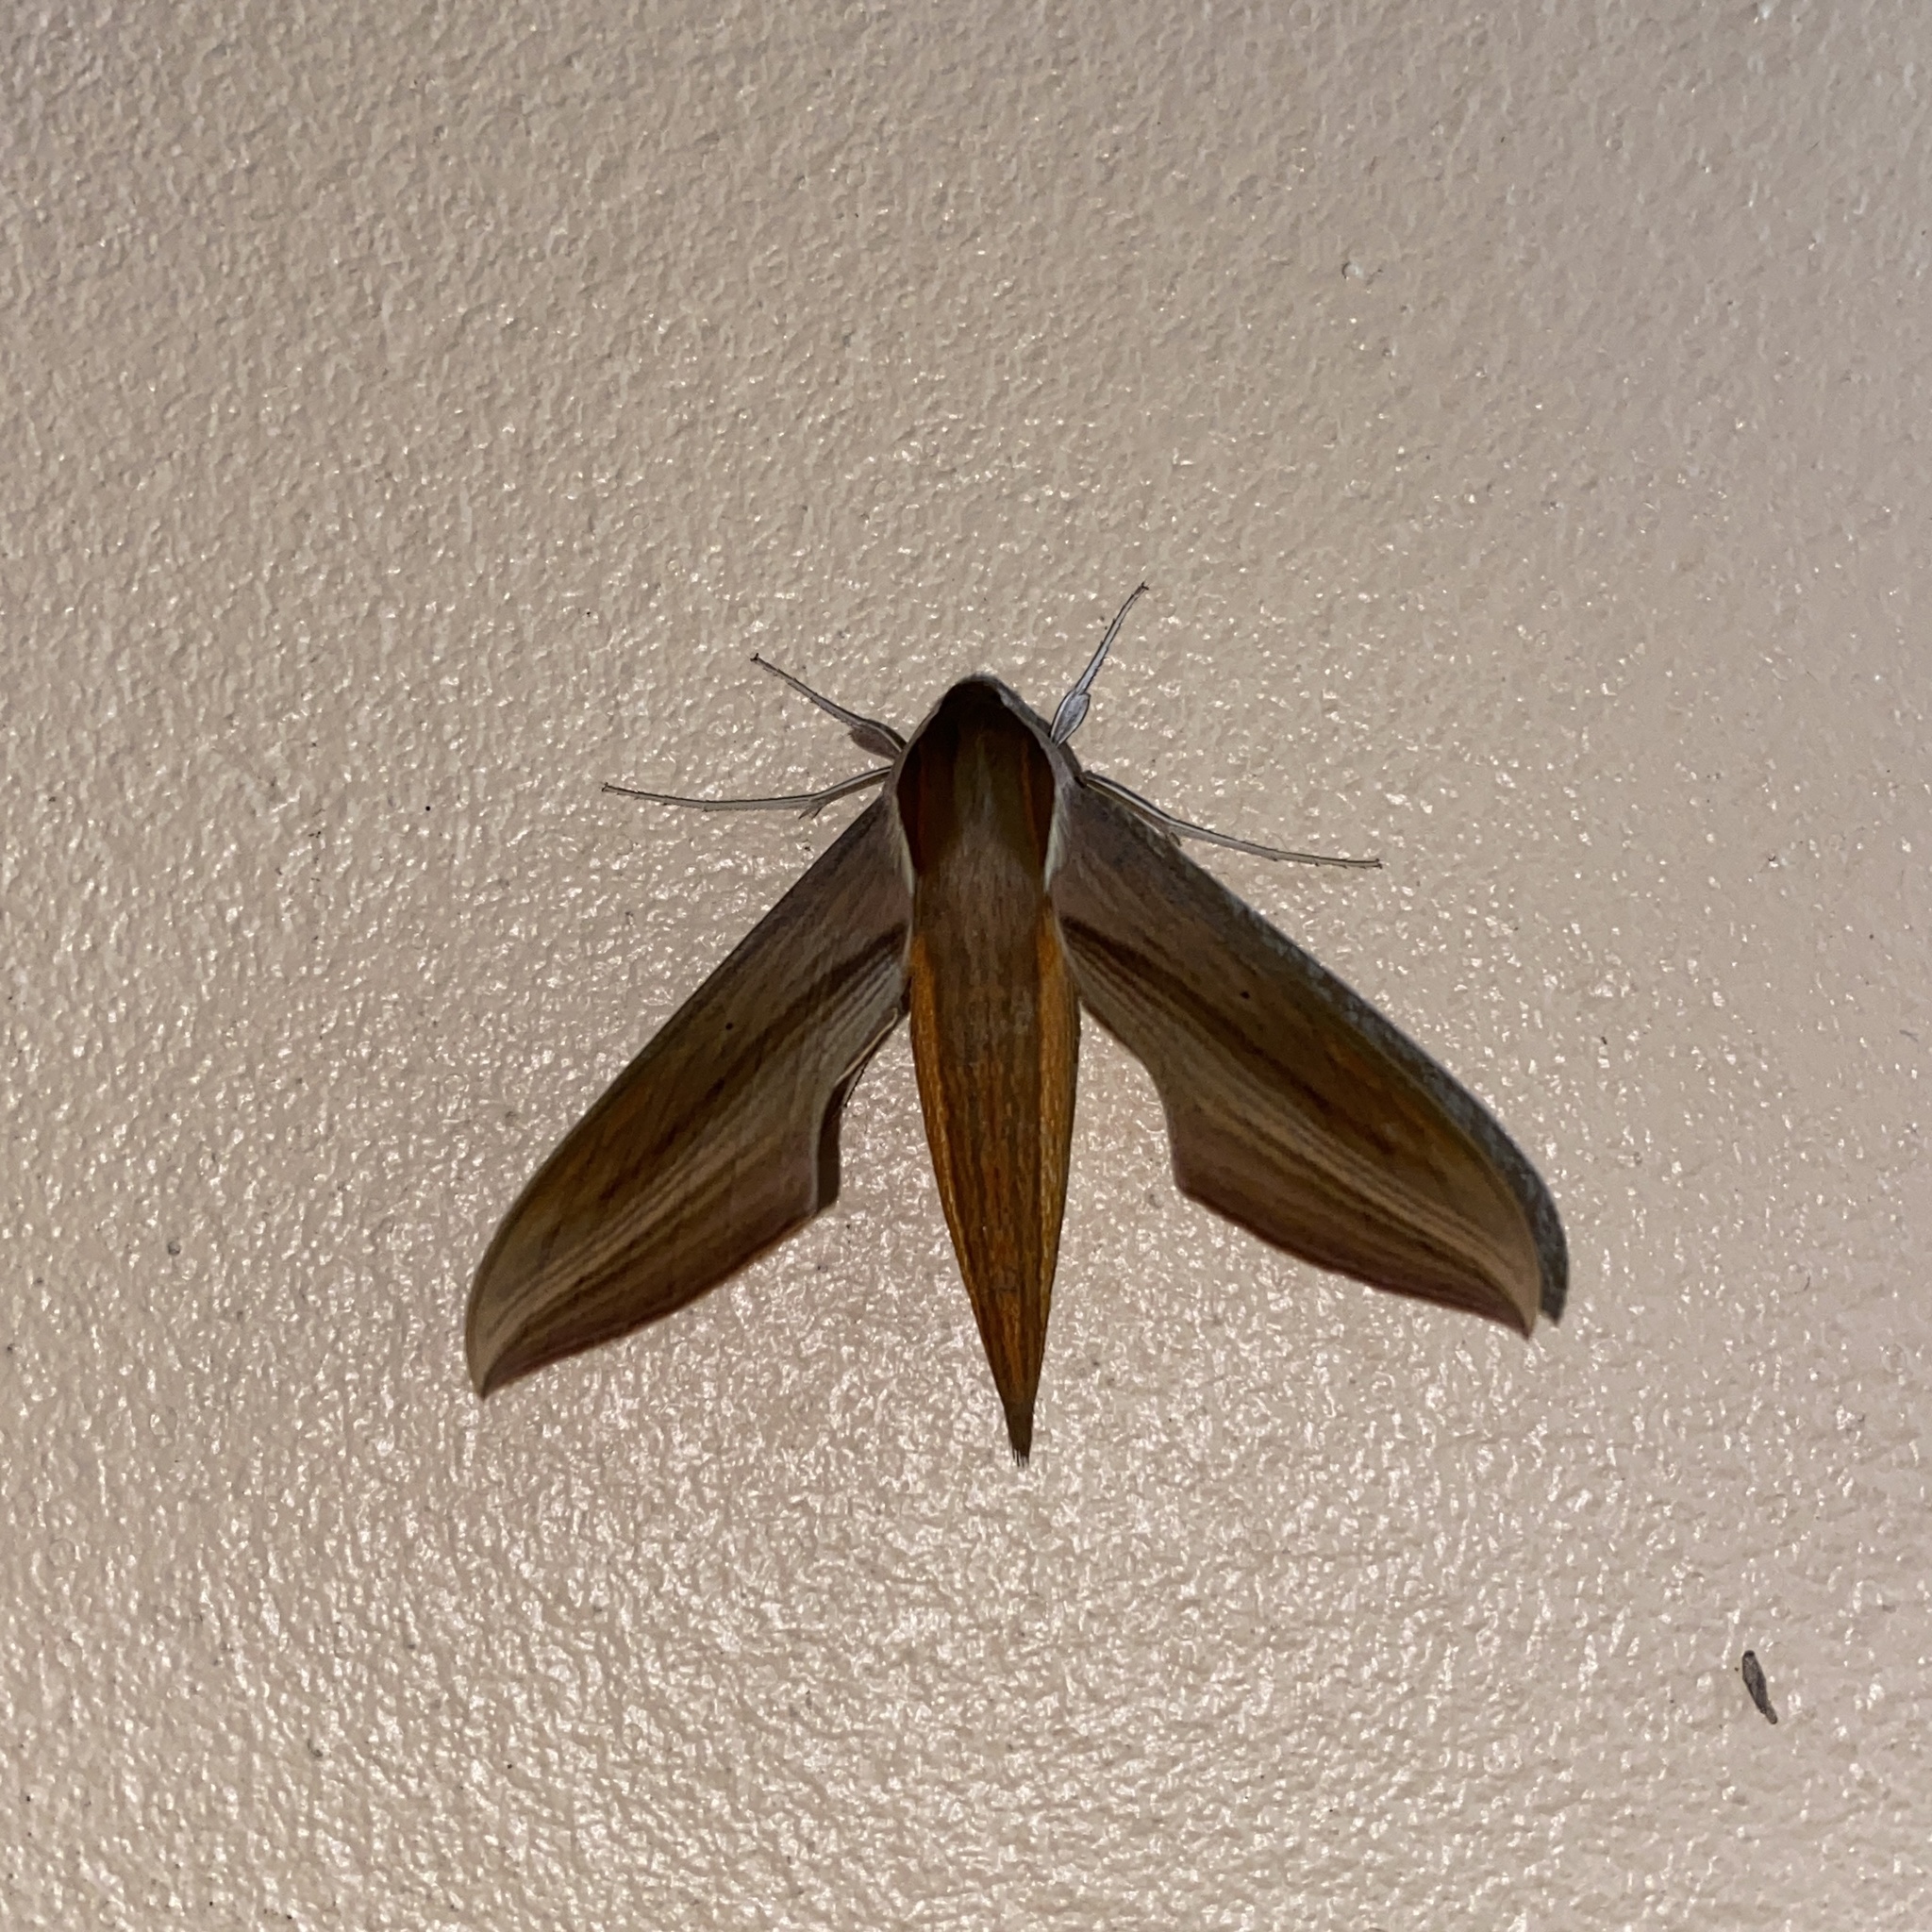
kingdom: Animalia
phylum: Arthropoda
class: Insecta
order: Lepidoptera
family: Sphingidae
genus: Xylophanes
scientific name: Xylophanes tersa
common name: Tersa sphinx
